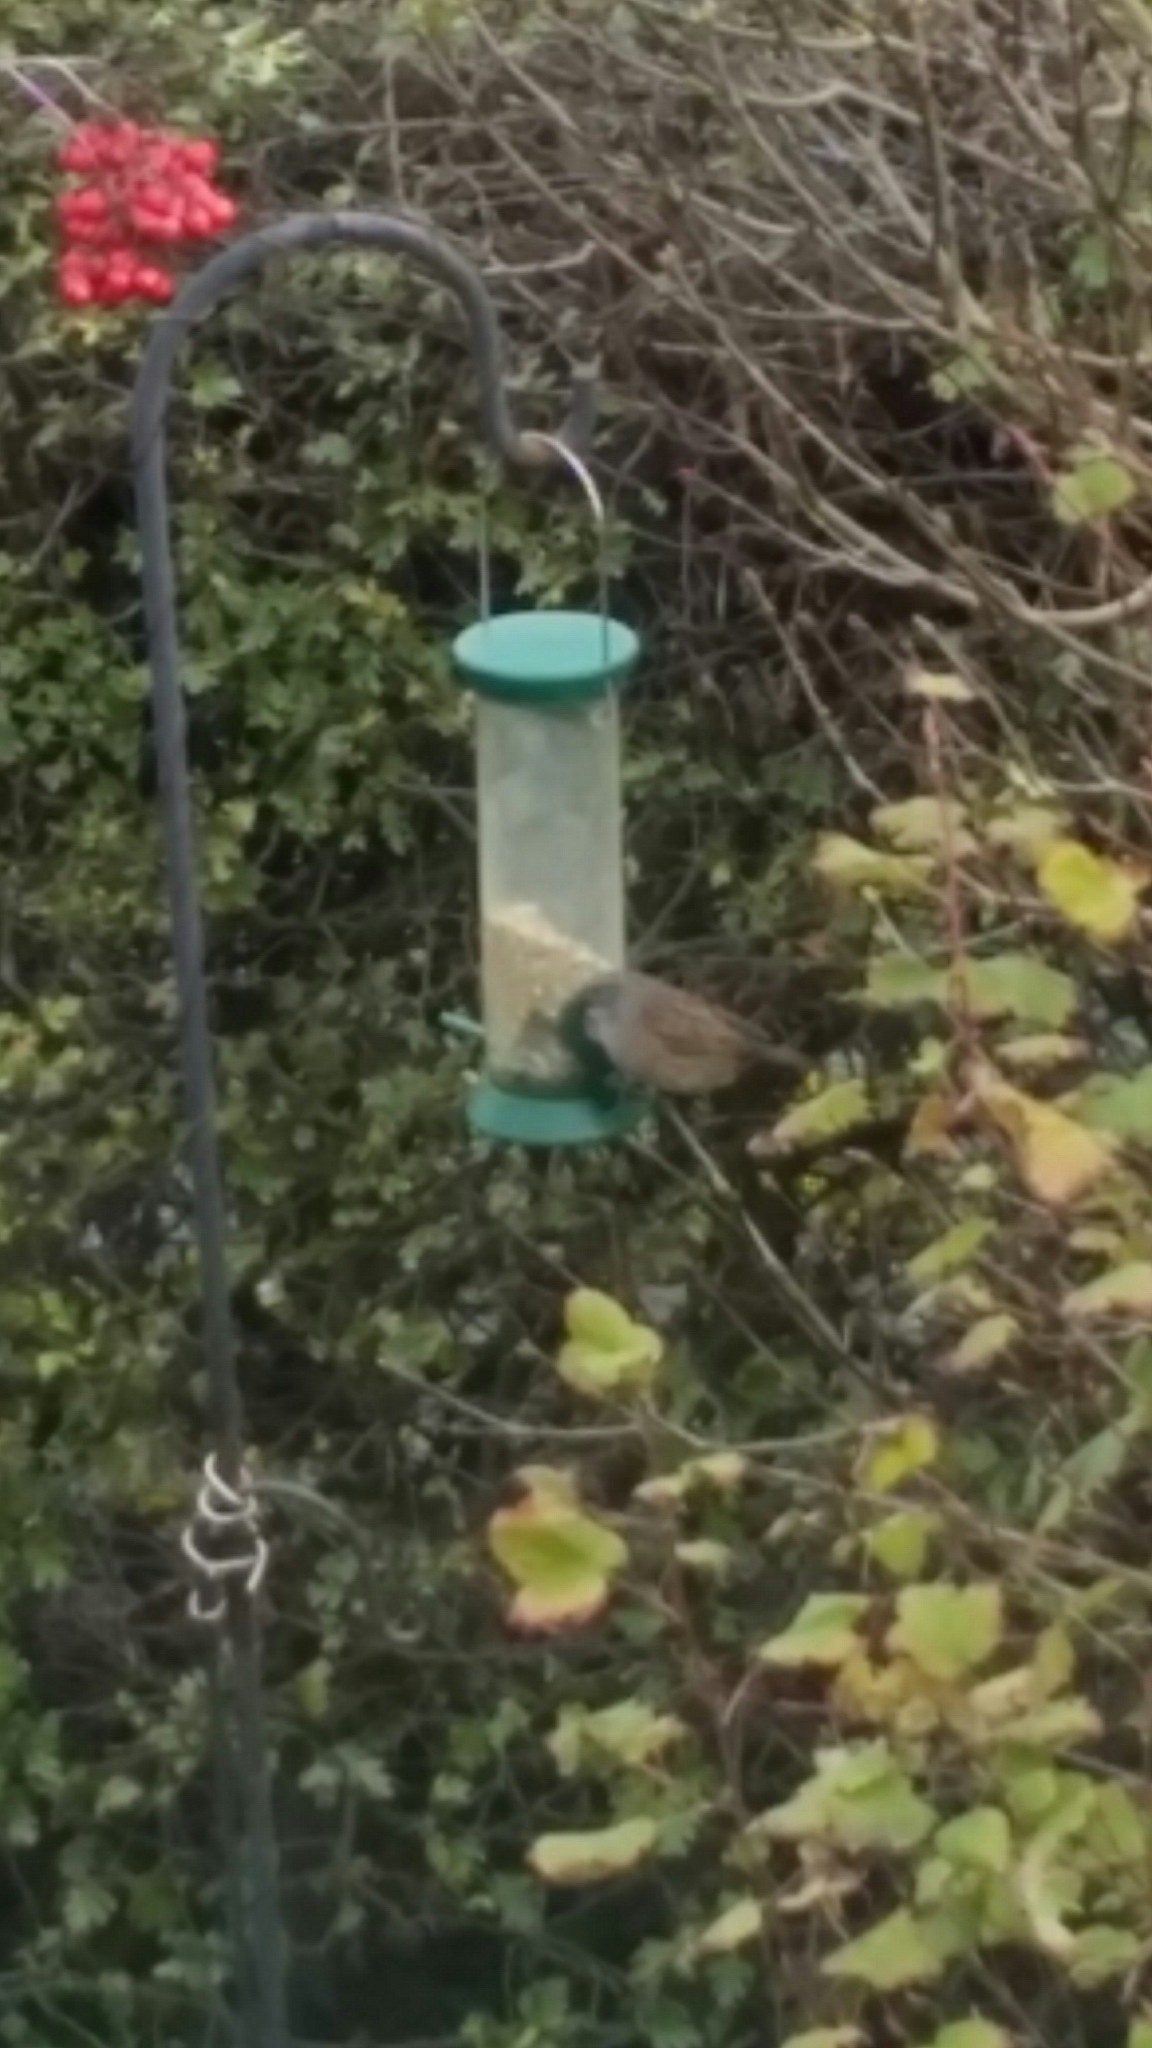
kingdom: Animalia
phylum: Chordata
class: Aves
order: Passeriformes
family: Prunellidae
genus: Prunella
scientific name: Prunella modularis
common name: Dunnock
